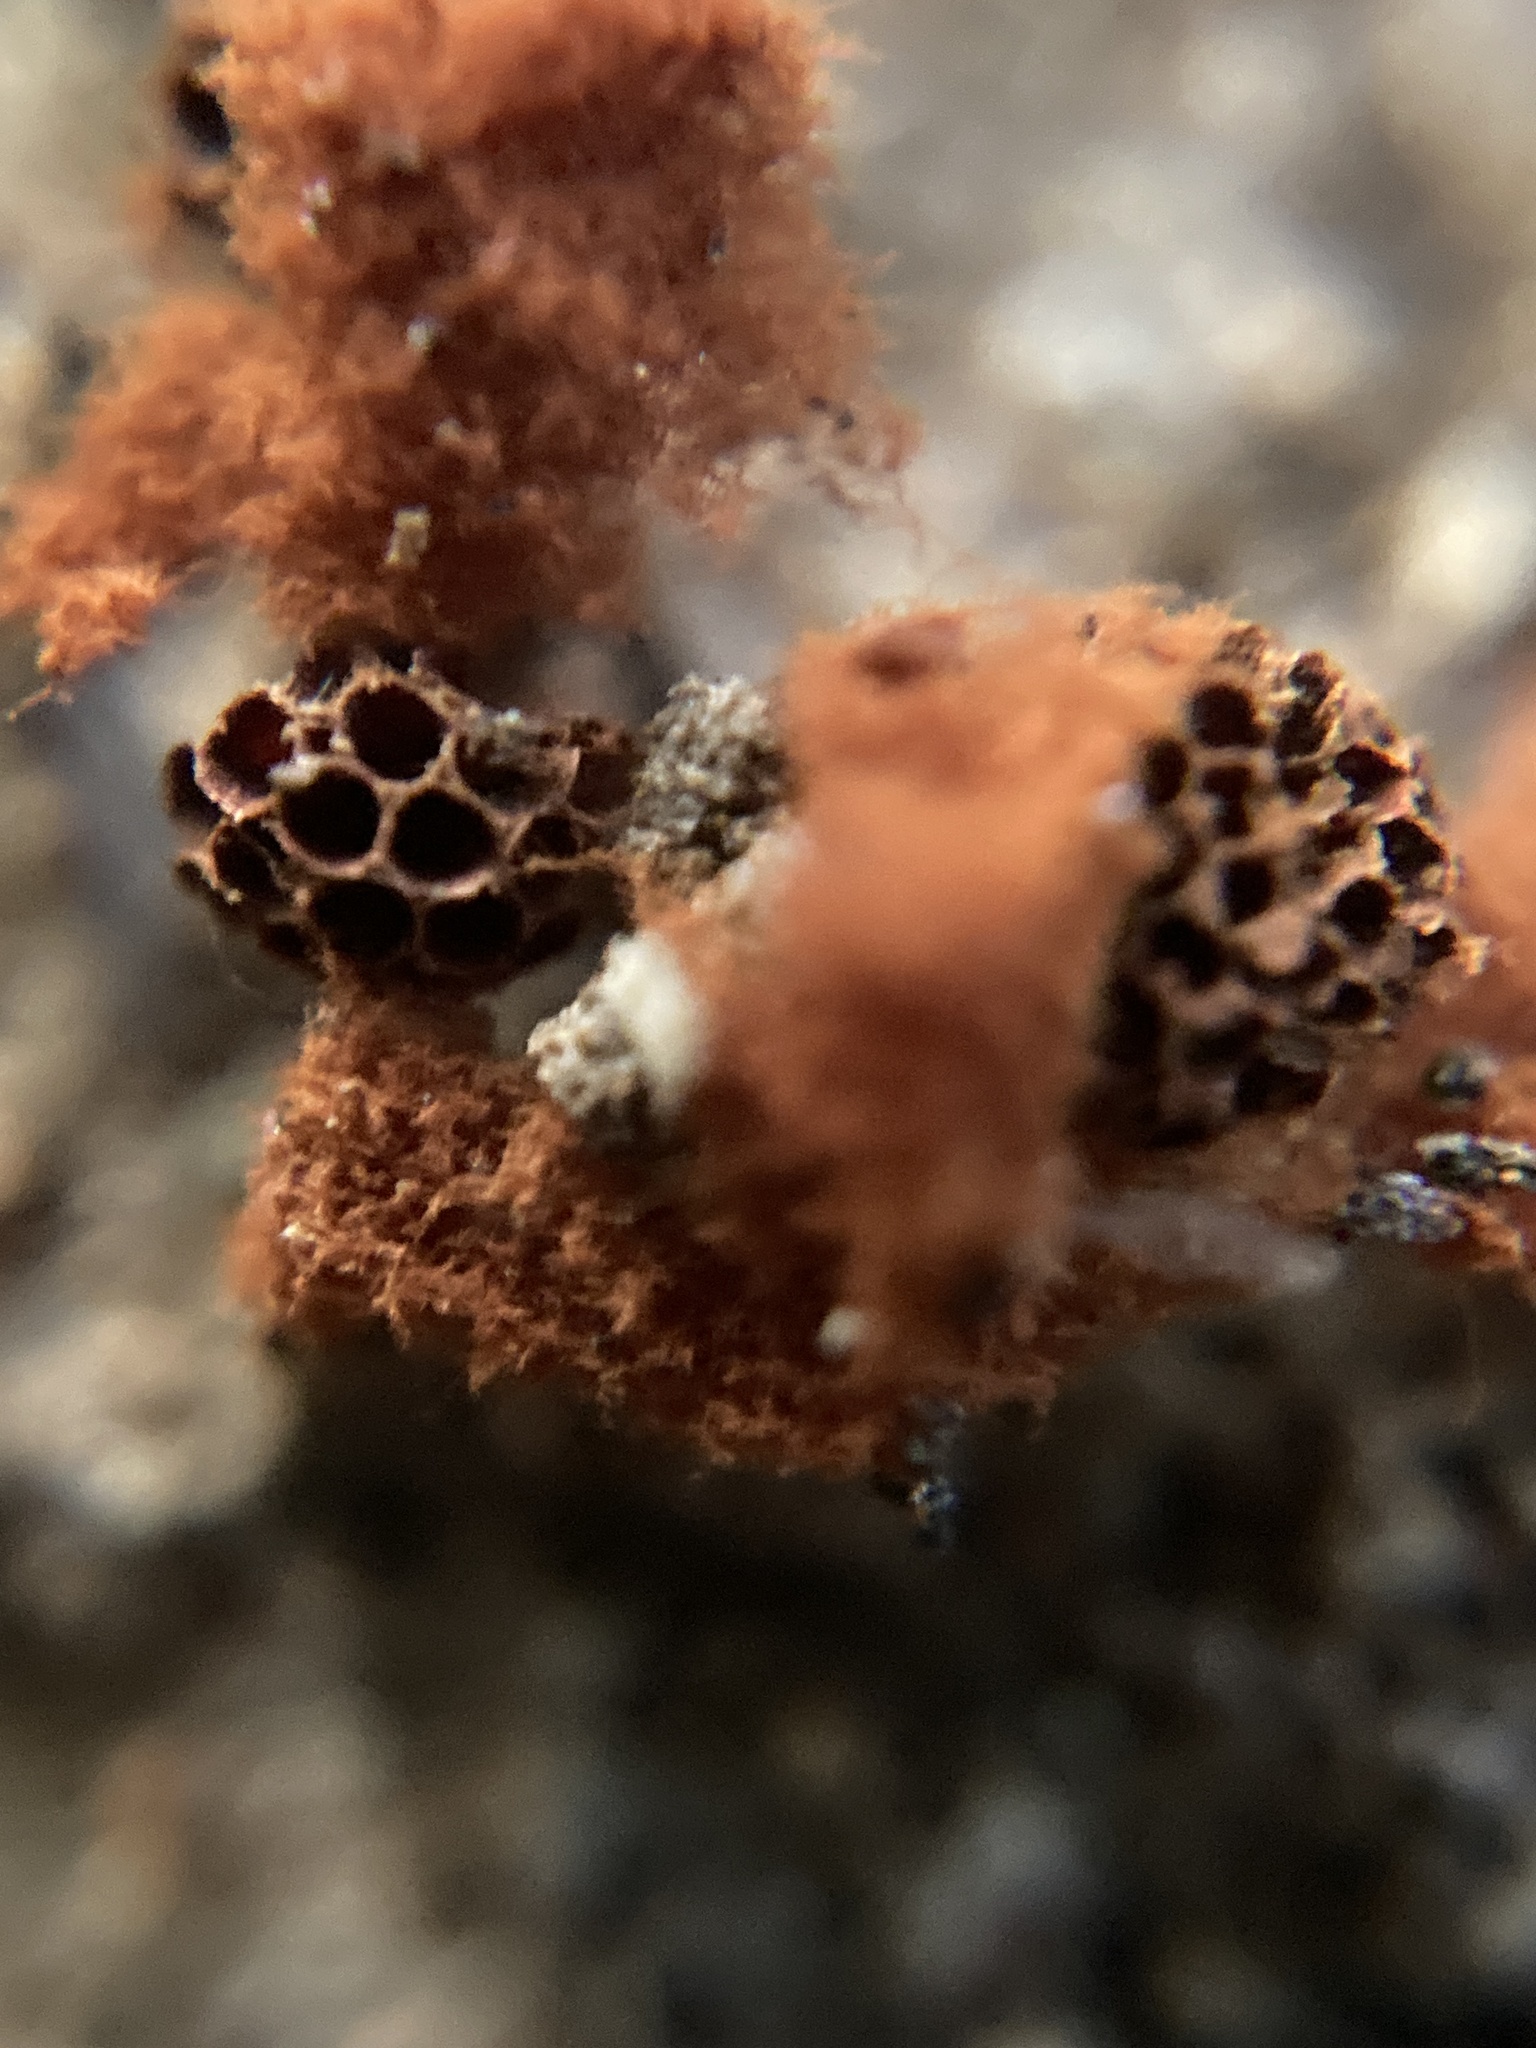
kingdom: Protozoa
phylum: Mycetozoa
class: Myxomycetes
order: Trichiales
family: Trichiaceae
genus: Metatrichia
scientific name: Metatrichia vesparia
